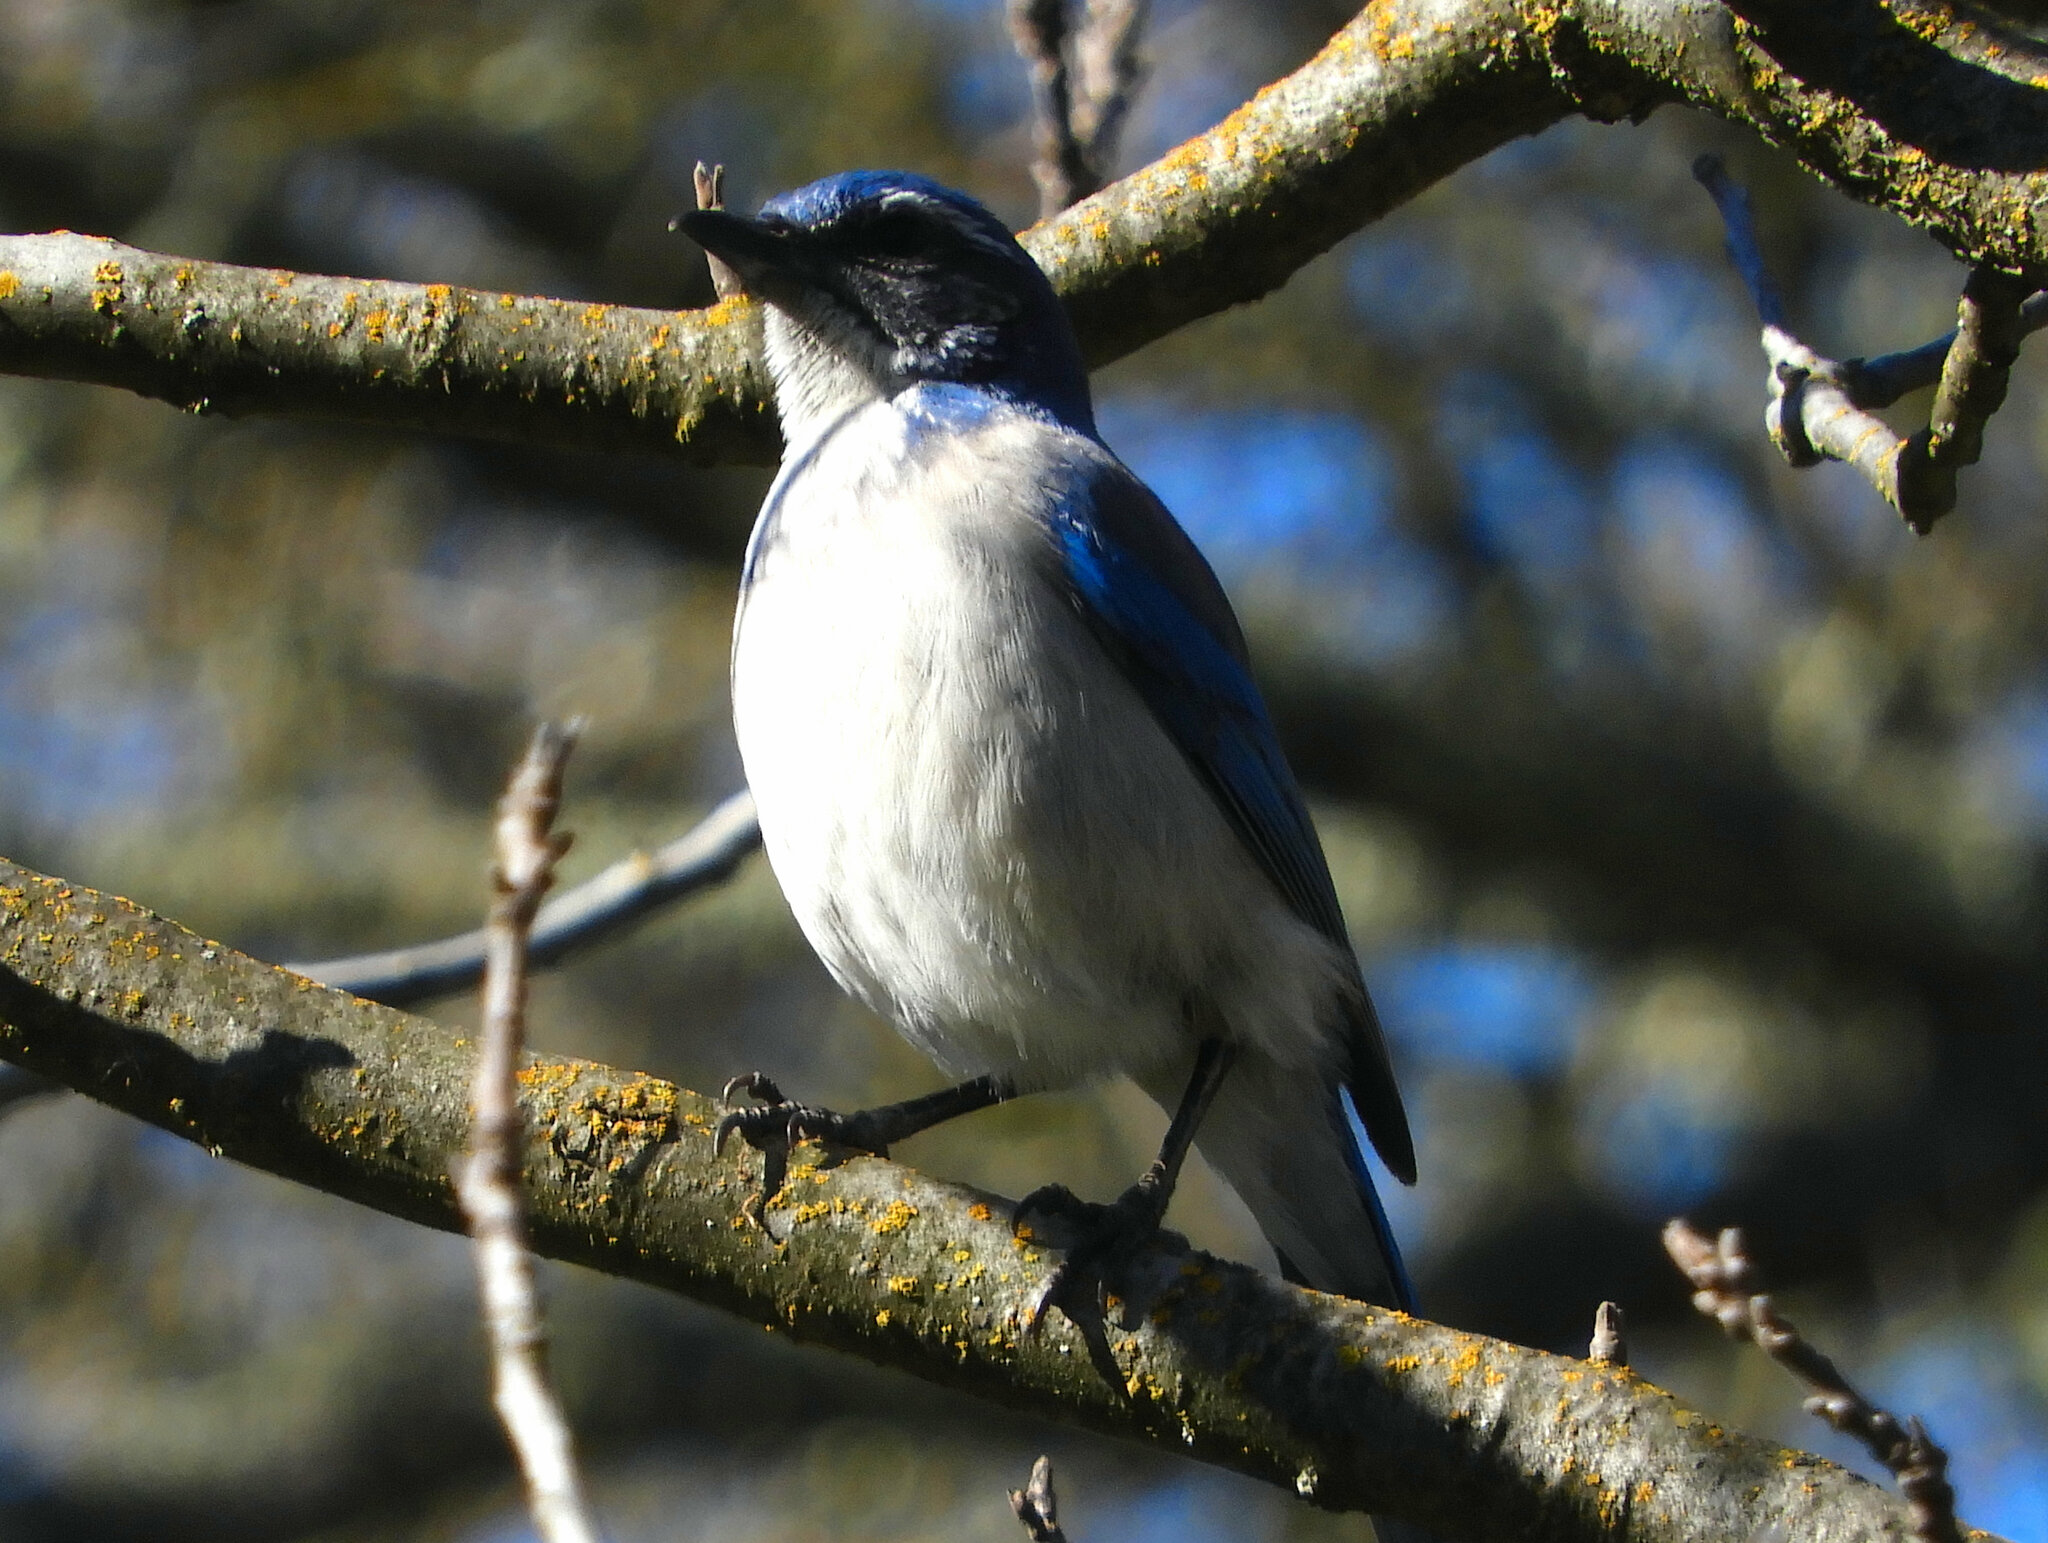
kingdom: Animalia
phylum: Chordata
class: Aves
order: Passeriformes
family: Corvidae
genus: Aphelocoma
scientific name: Aphelocoma californica
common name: California scrub-jay
